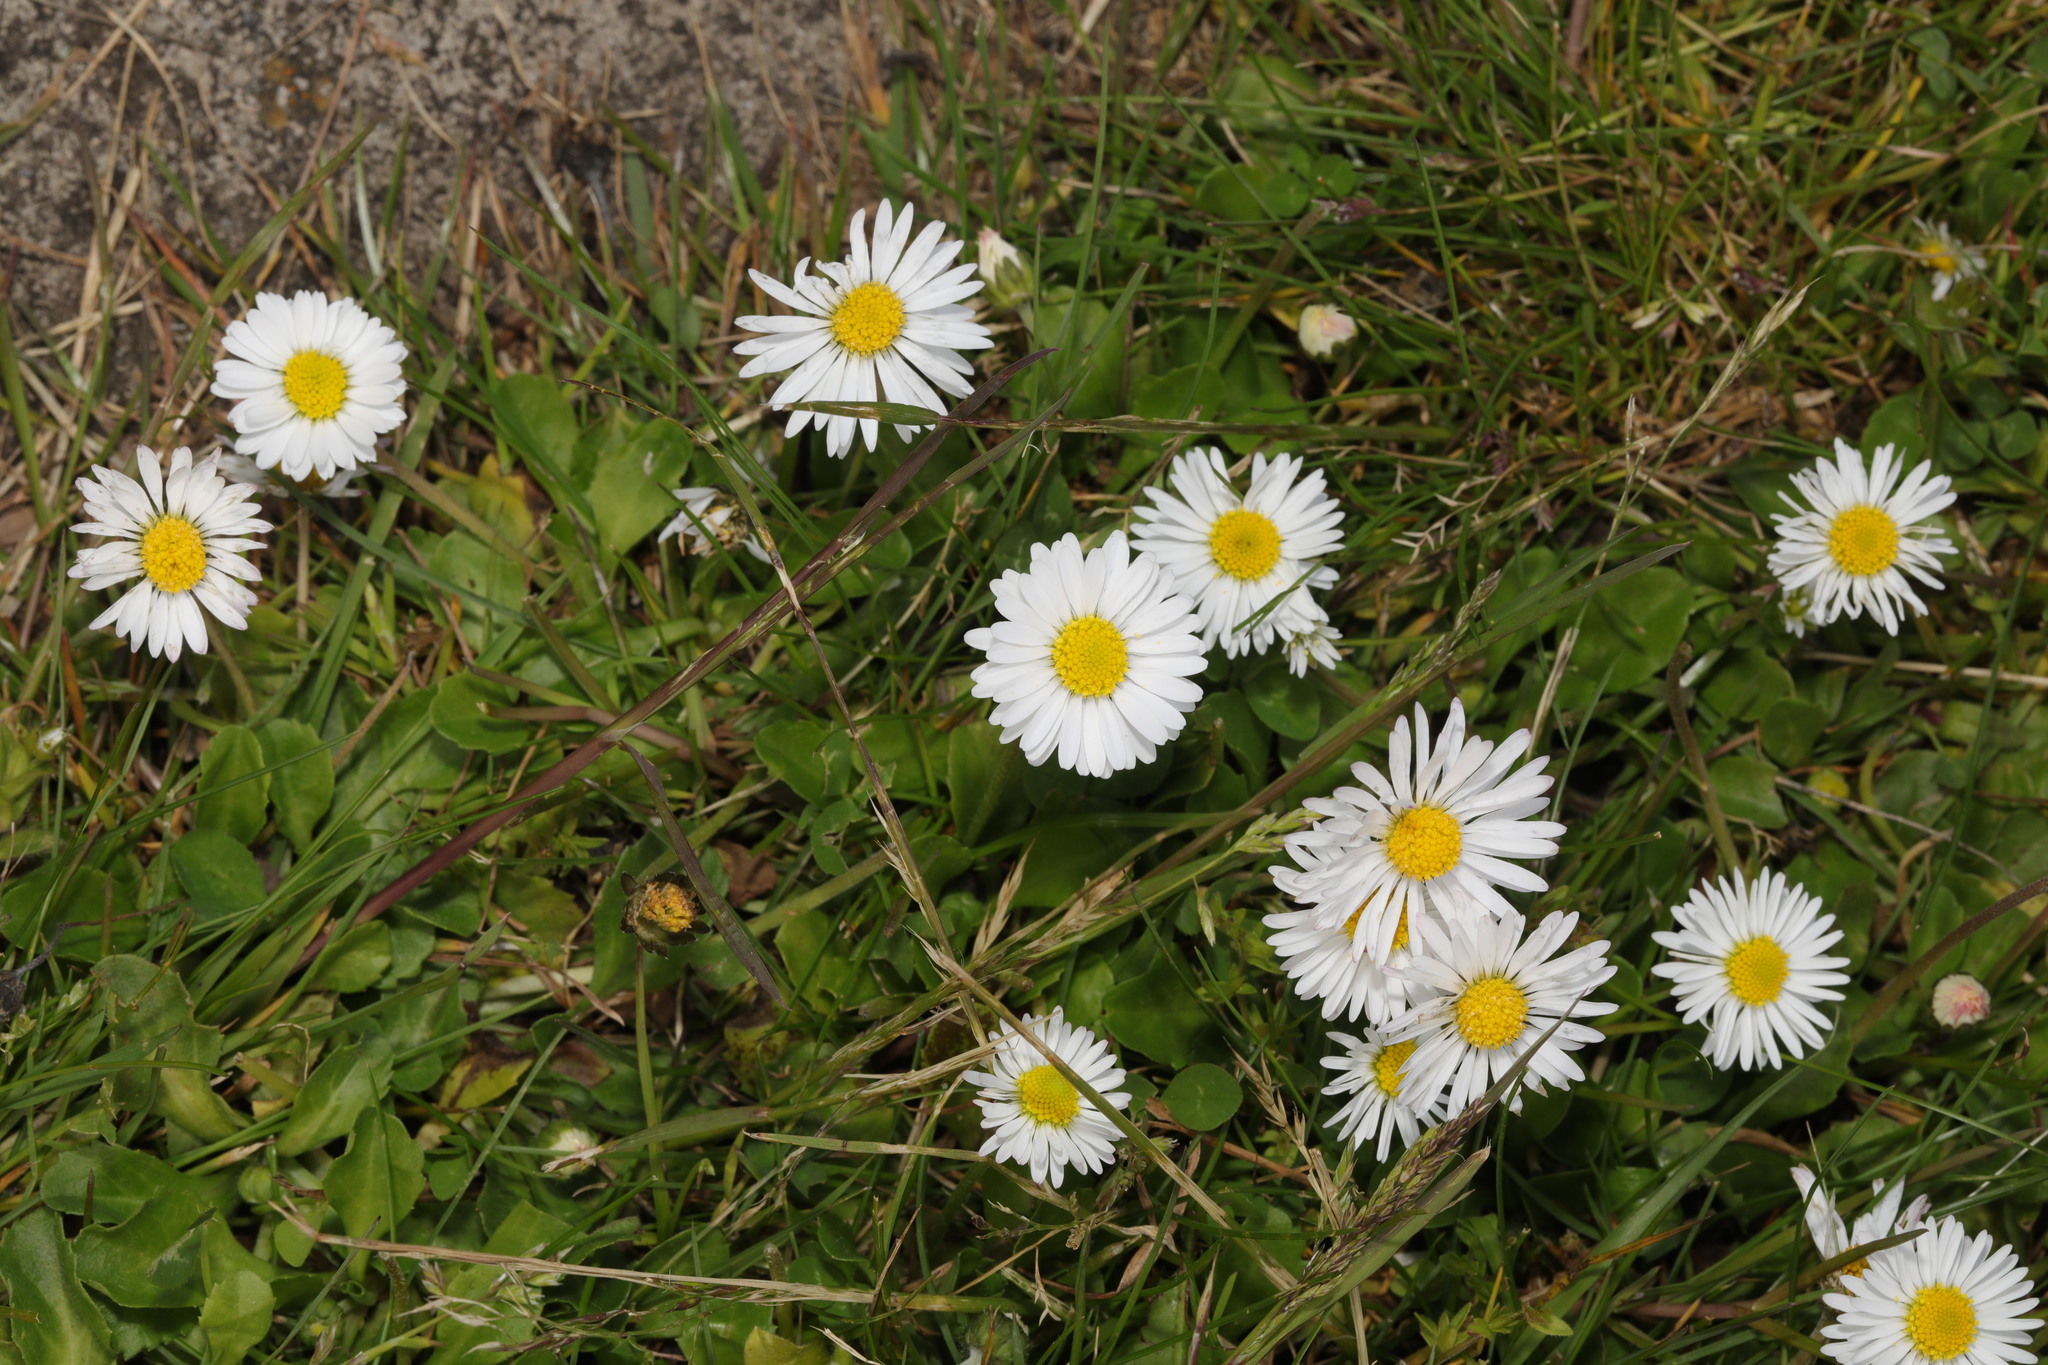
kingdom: Plantae
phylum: Tracheophyta
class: Magnoliopsida
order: Asterales
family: Asteraceae
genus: Bellis
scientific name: Bellis perennis
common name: Lawndaisy
